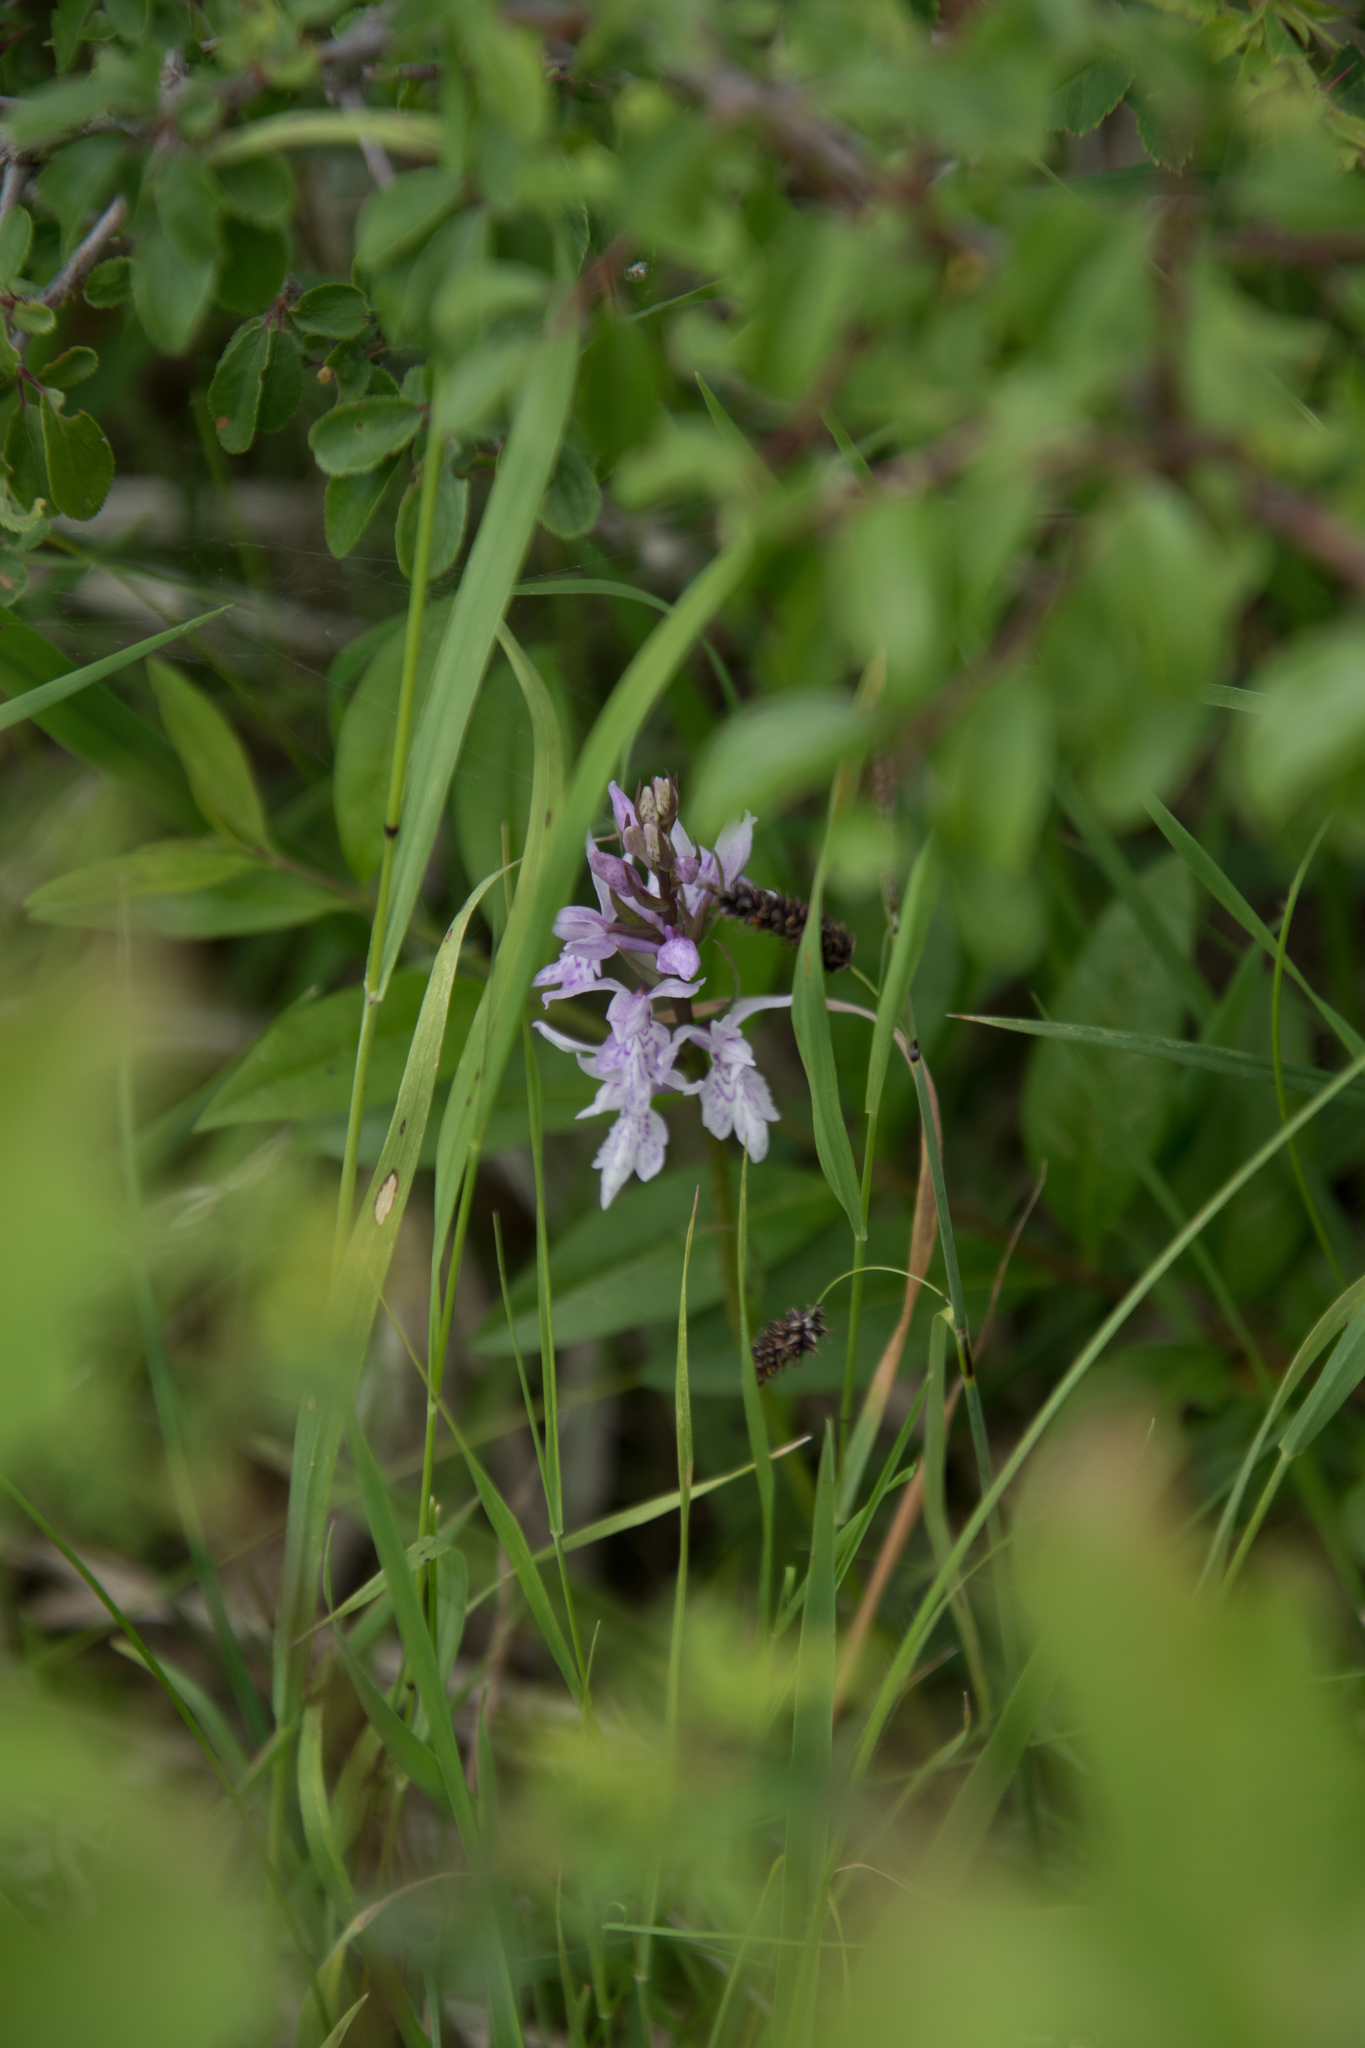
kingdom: Plantae
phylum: Tracheophyta
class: Liliopsida
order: Asparagales
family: Orchidaceae
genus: Dactylorhiza
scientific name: Dactylorhiza maculata
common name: Heath spotted-orchid
